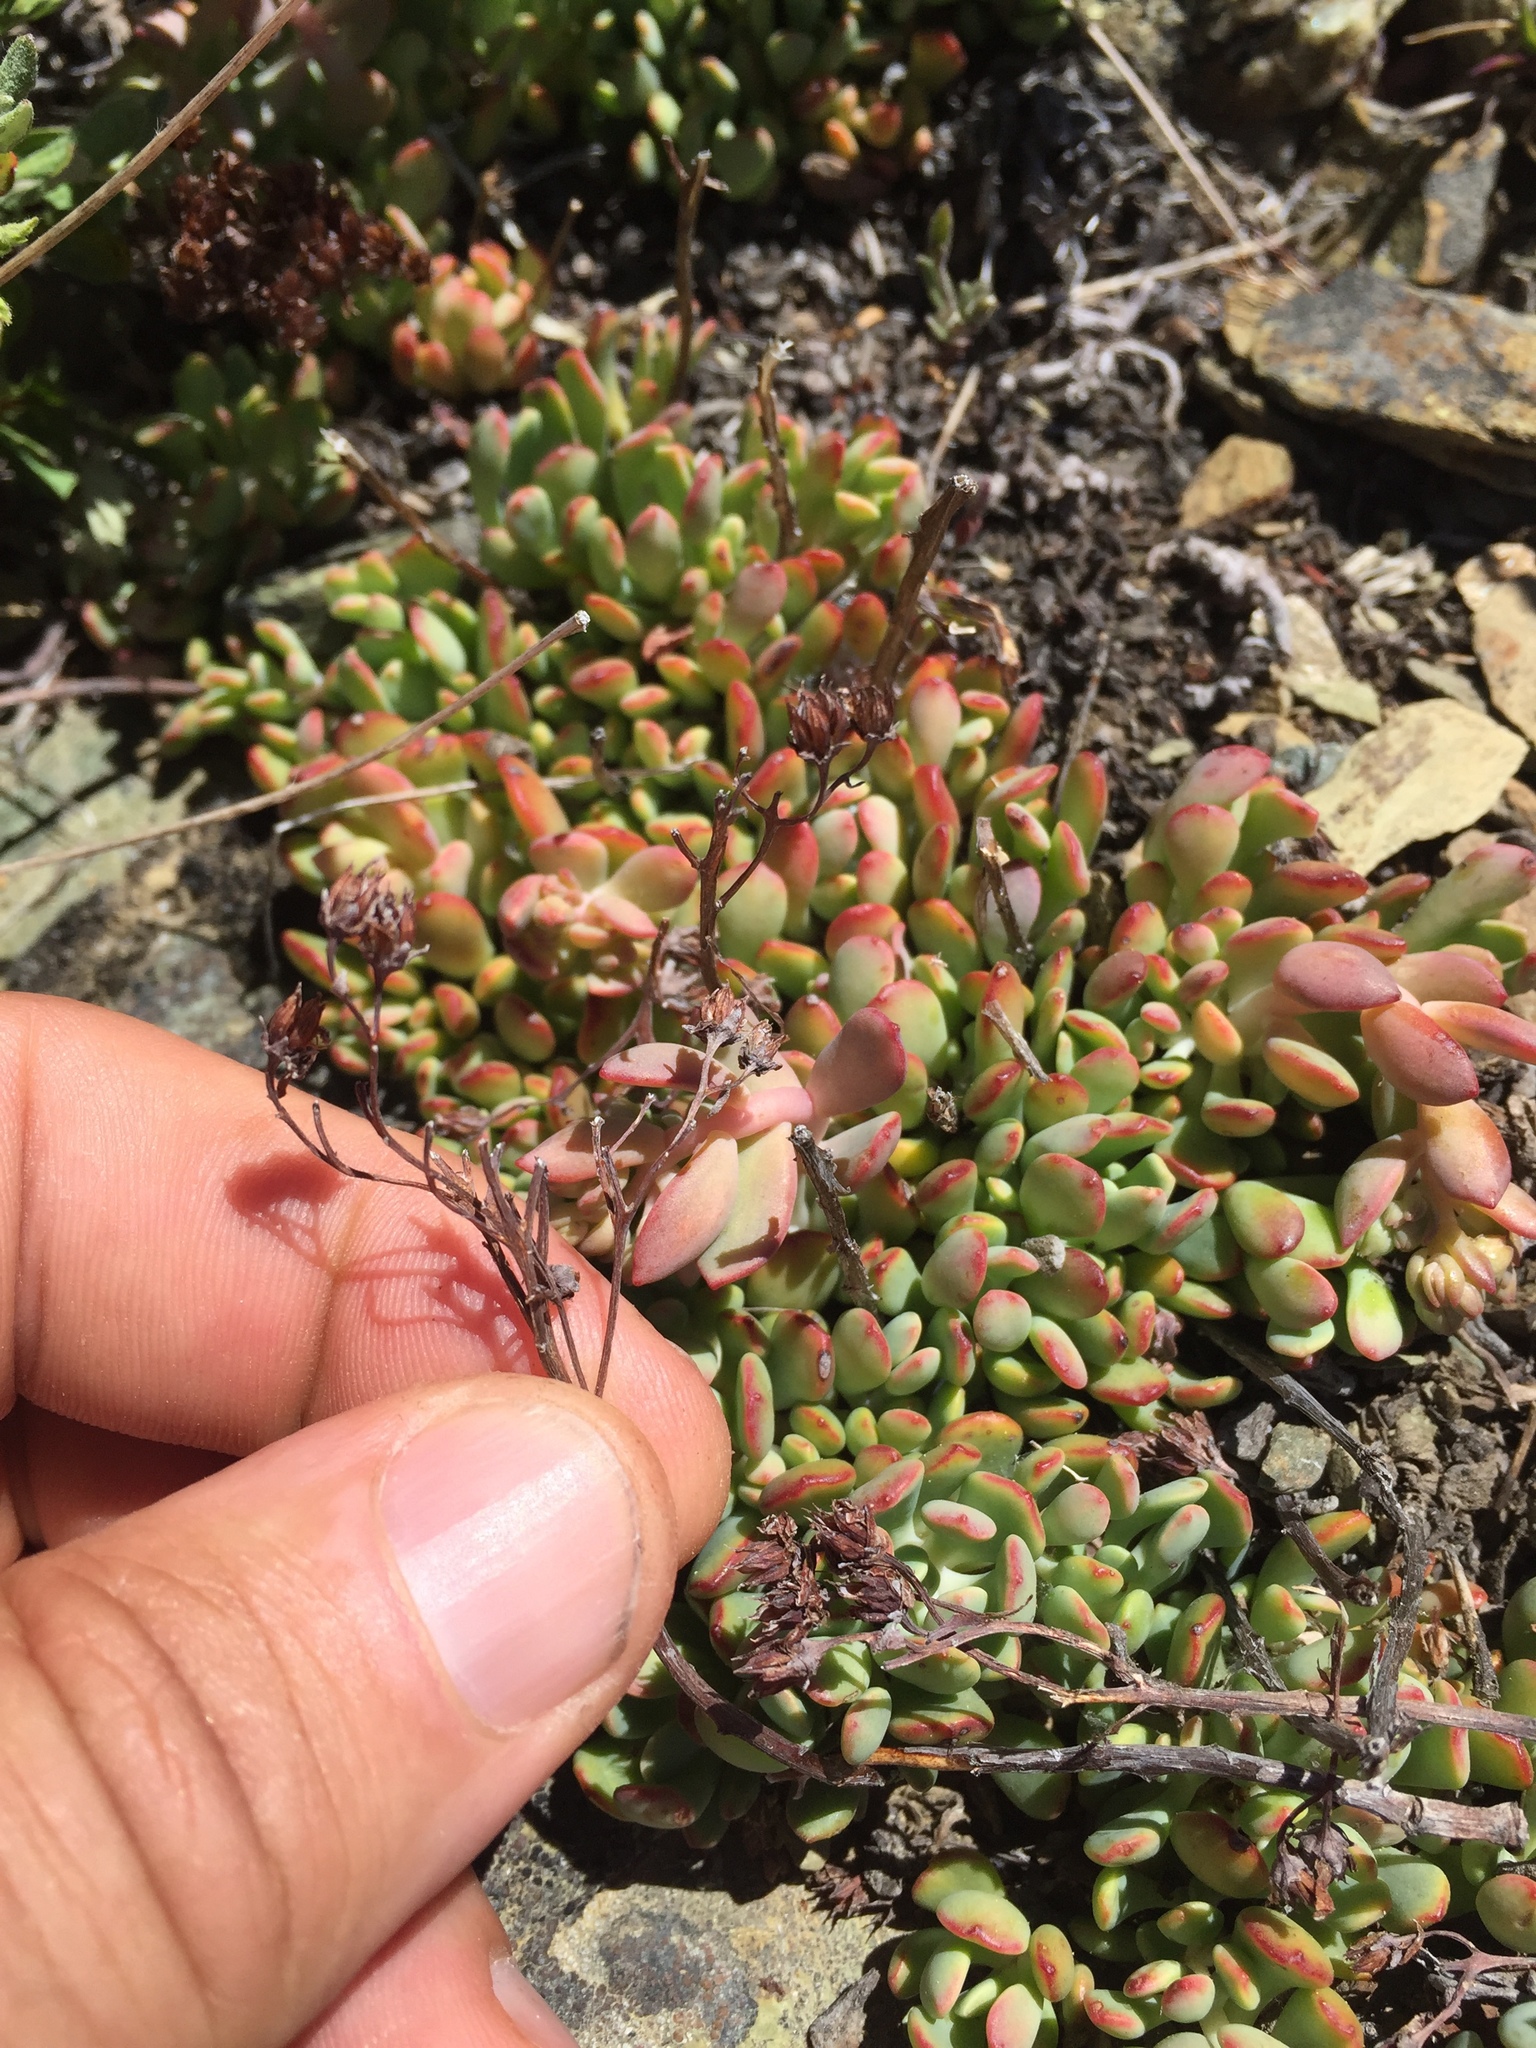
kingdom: Plantae
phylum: Tracheophyta
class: Magnoliopsida
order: Saxifragales
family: Crassulaceae
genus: Sedum
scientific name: Sedum
